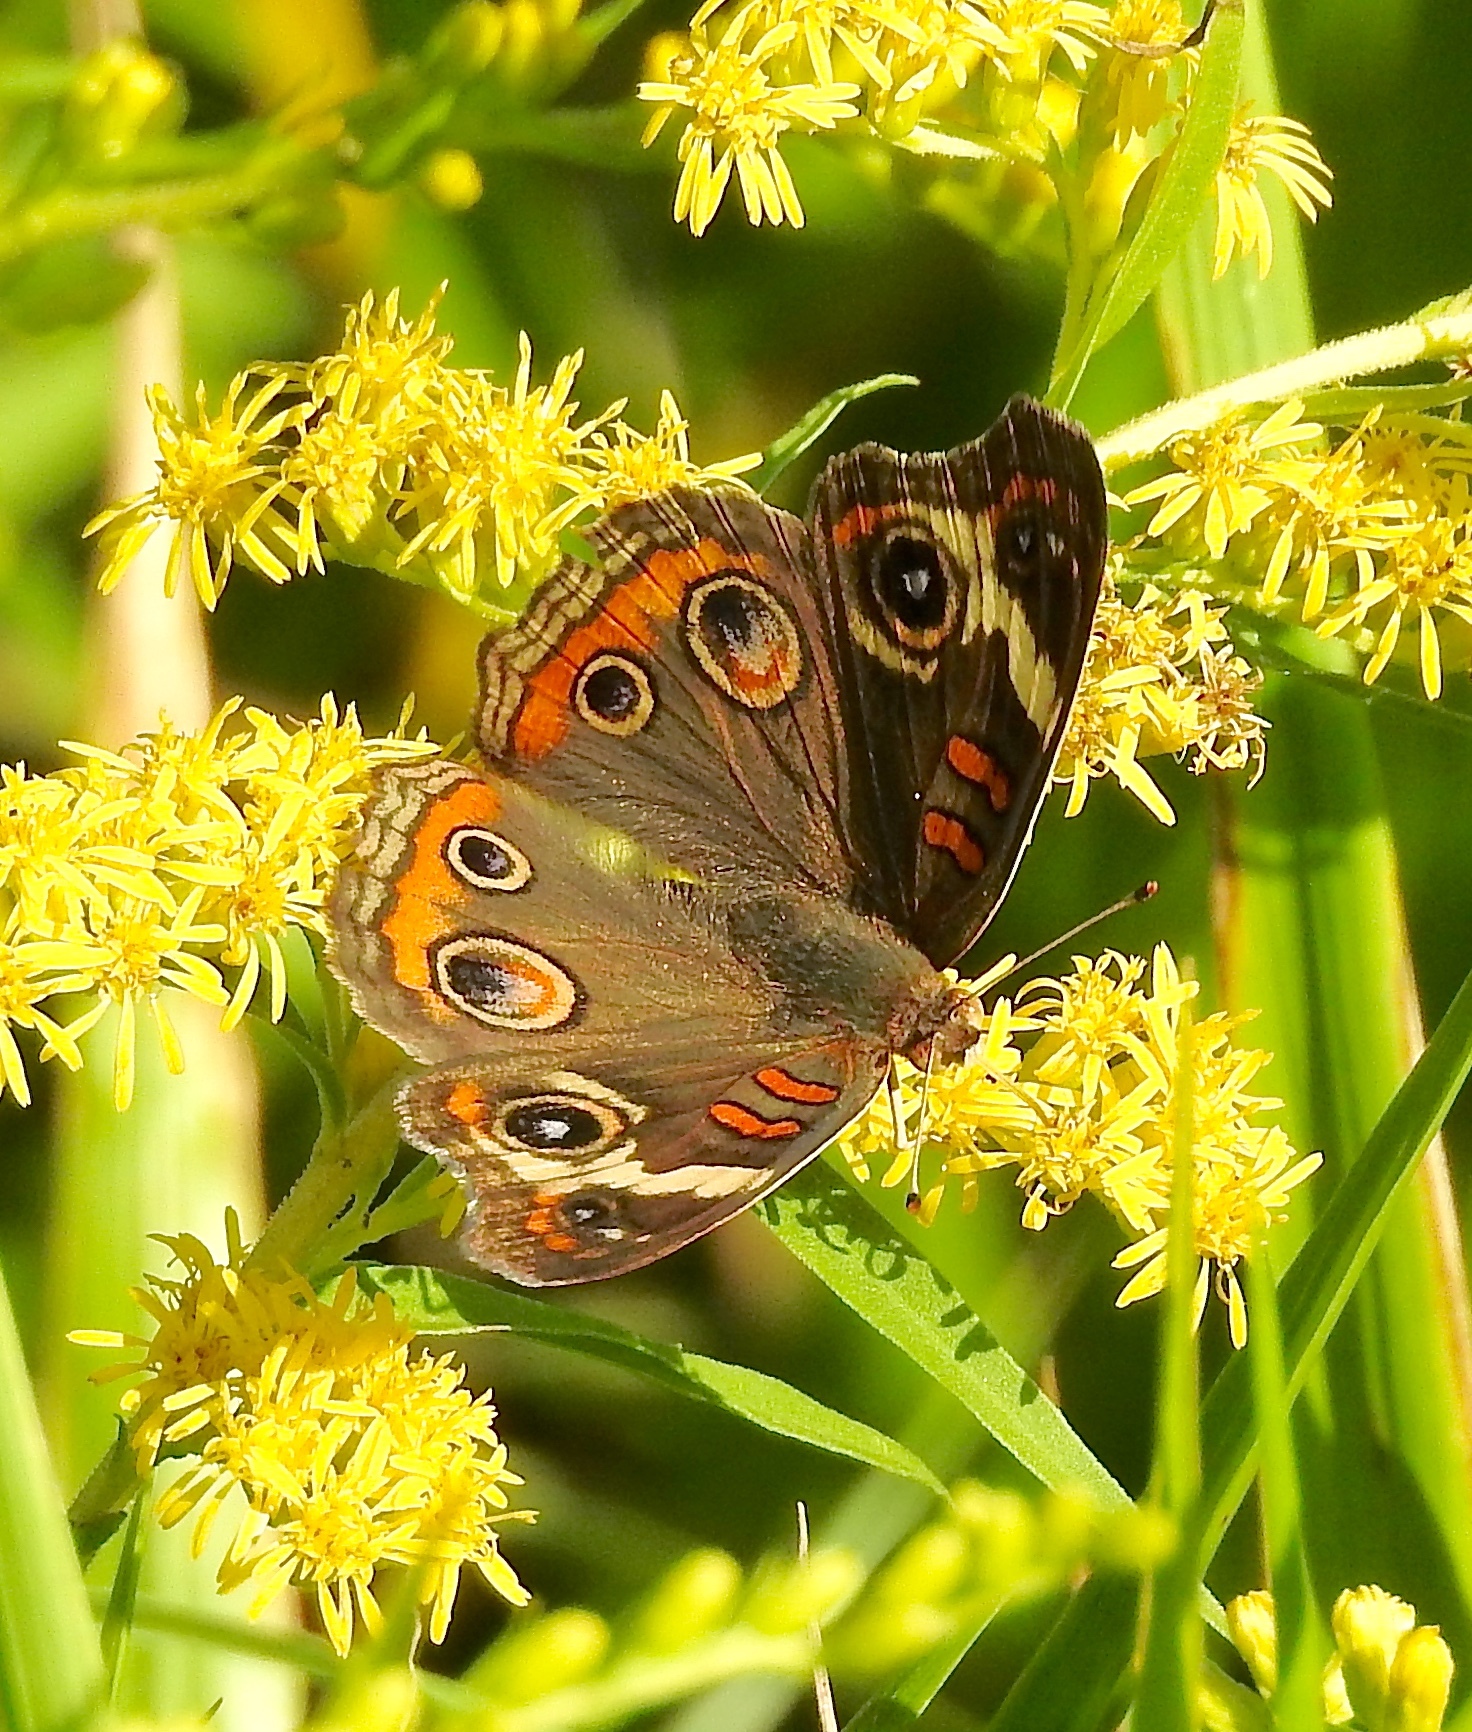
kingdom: Animalia
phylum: Arthropoda
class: Insecta
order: Lepidoptera
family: Nymphalidae
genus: Junonia
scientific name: Junonia coenia
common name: Common buckeye
